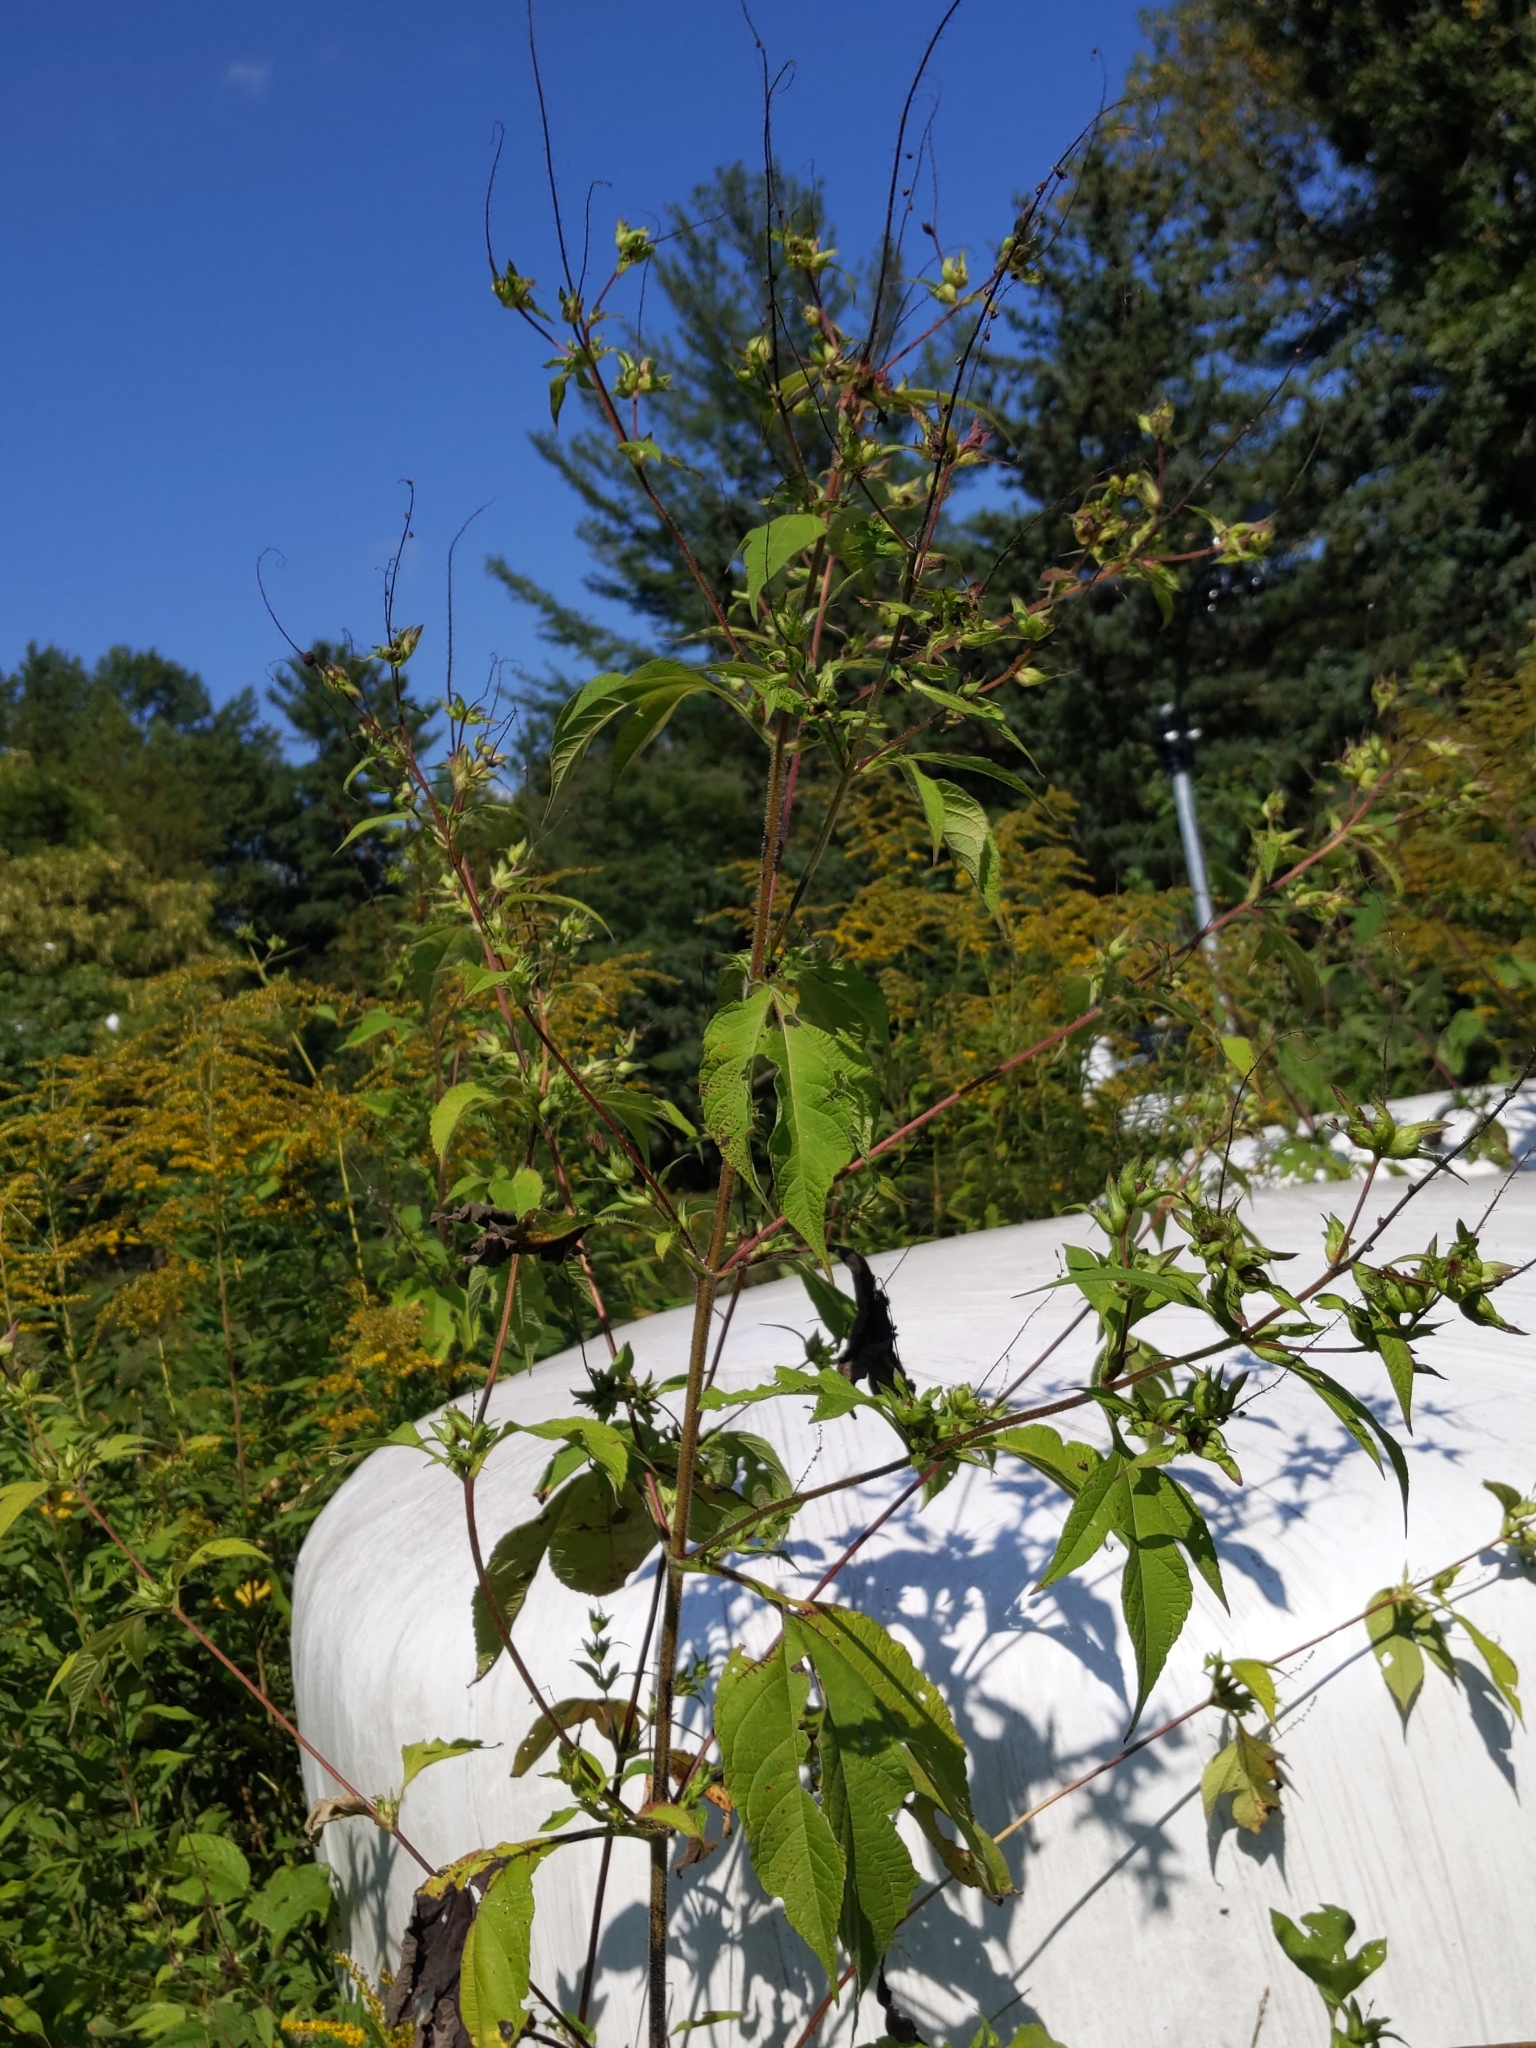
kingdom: Plantae
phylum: Tracheophyta
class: Magnoliopsida
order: Asterales
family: Asteraceae
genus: Ambrosia
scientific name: Ambrosia trifida
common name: Giant ragweed
